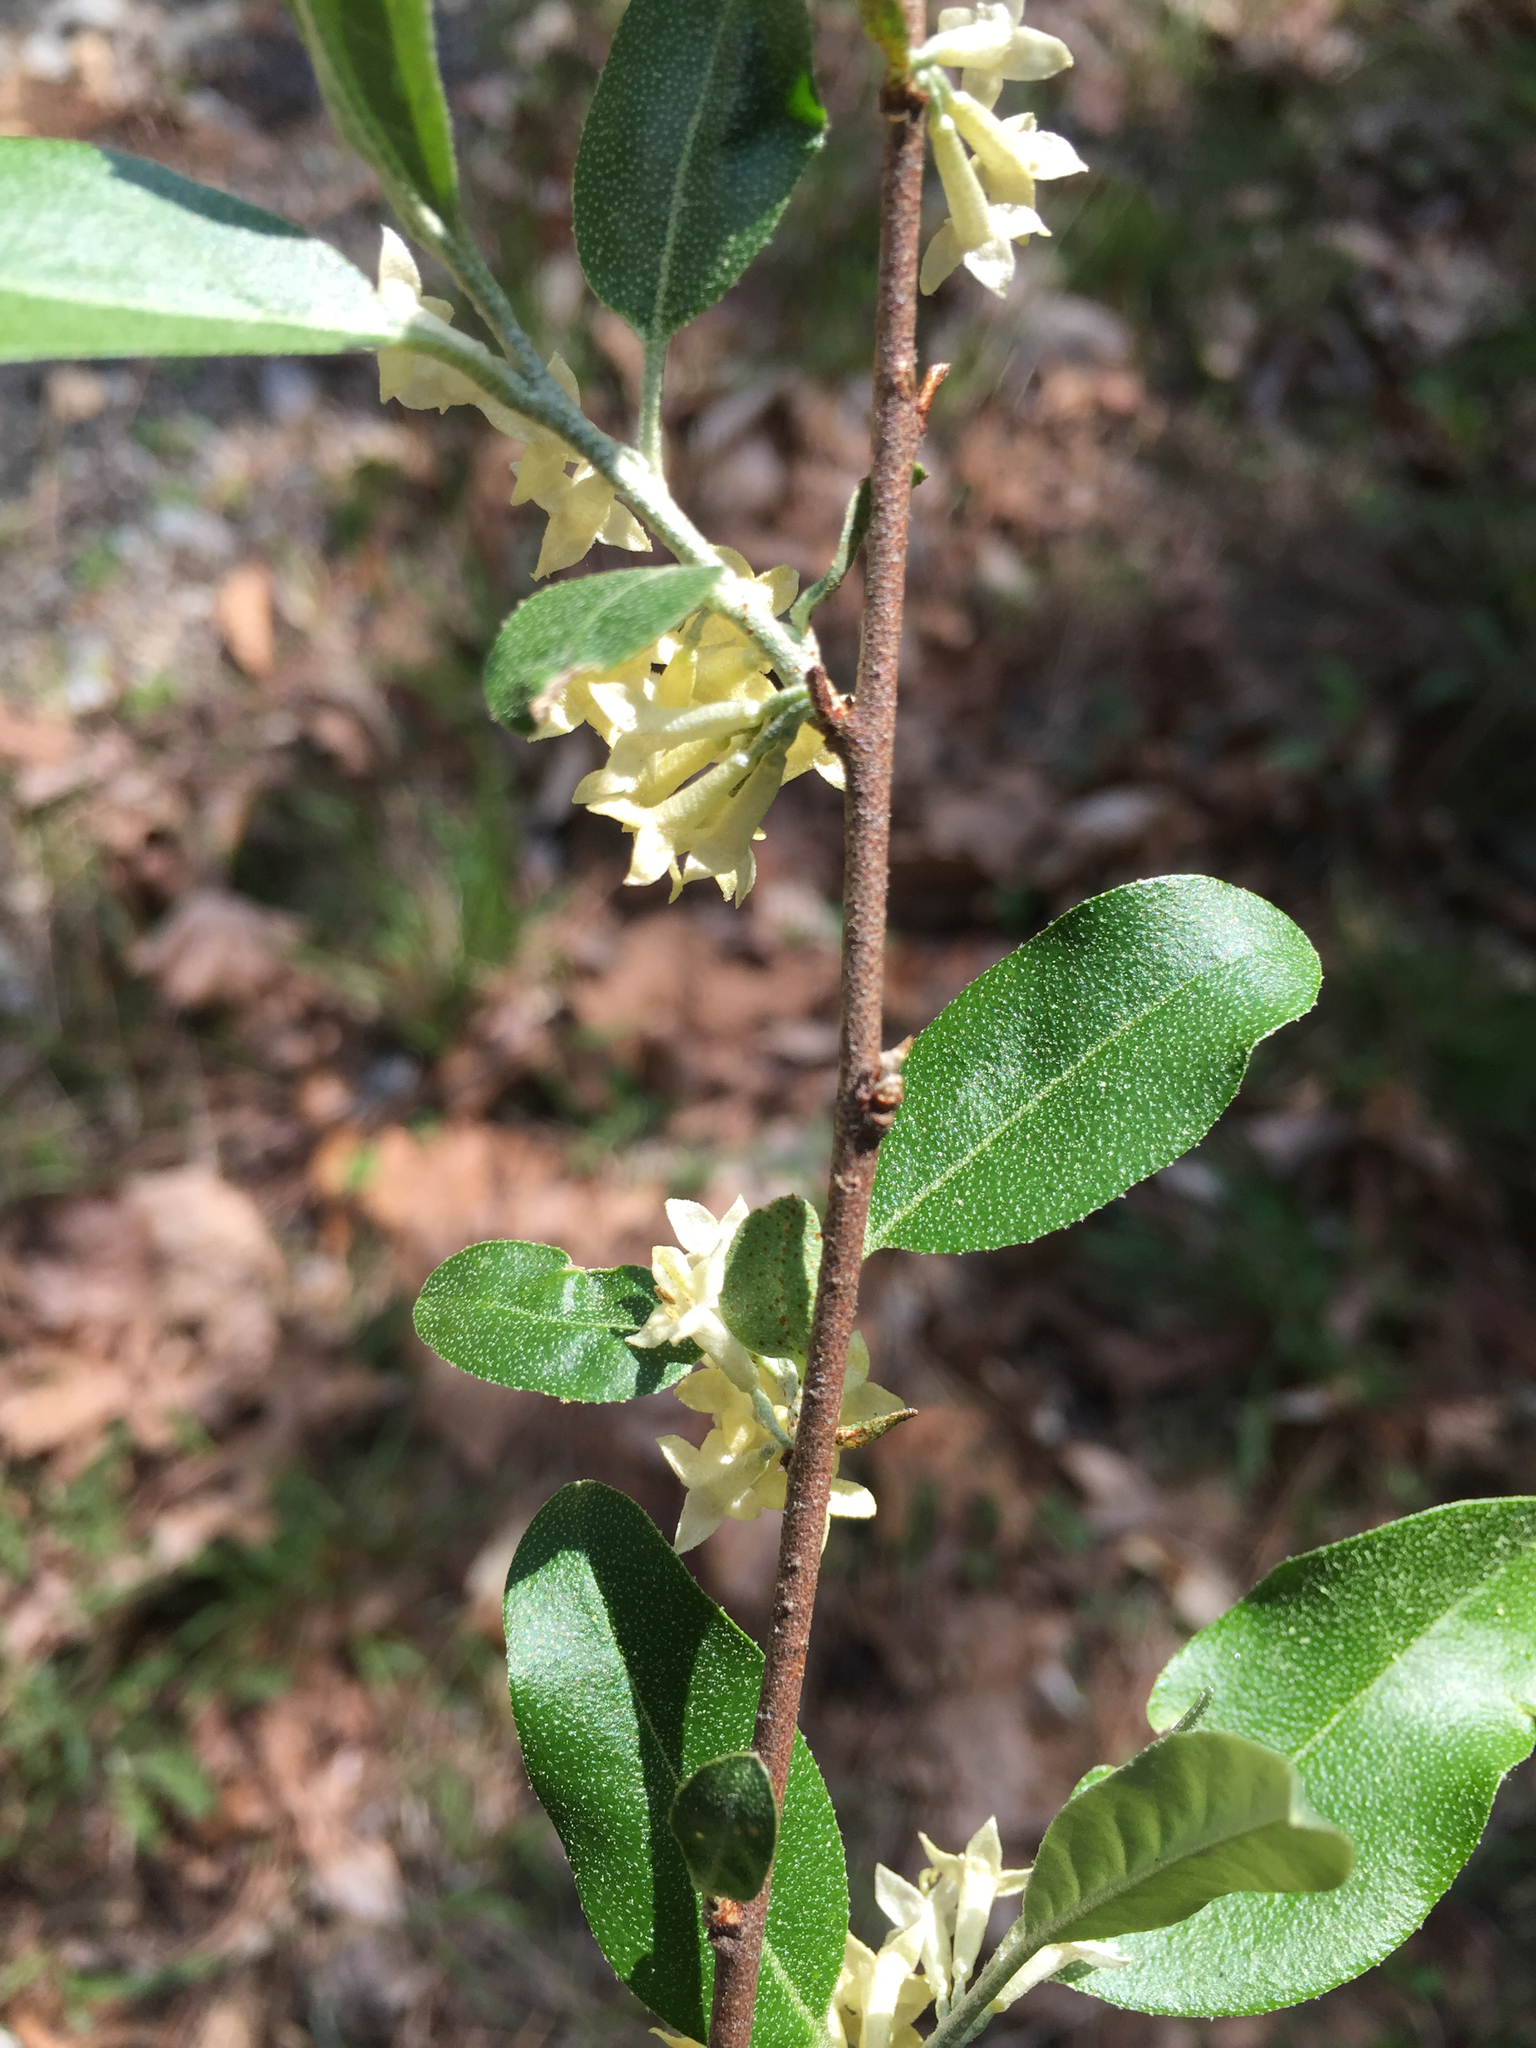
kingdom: Plantae
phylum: Tracheophyta
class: Magnoliopsida
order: Rosales
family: Elaeagnaceae
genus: Elaeagnus
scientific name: Elaeagnus umbellata
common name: Autumn olive
